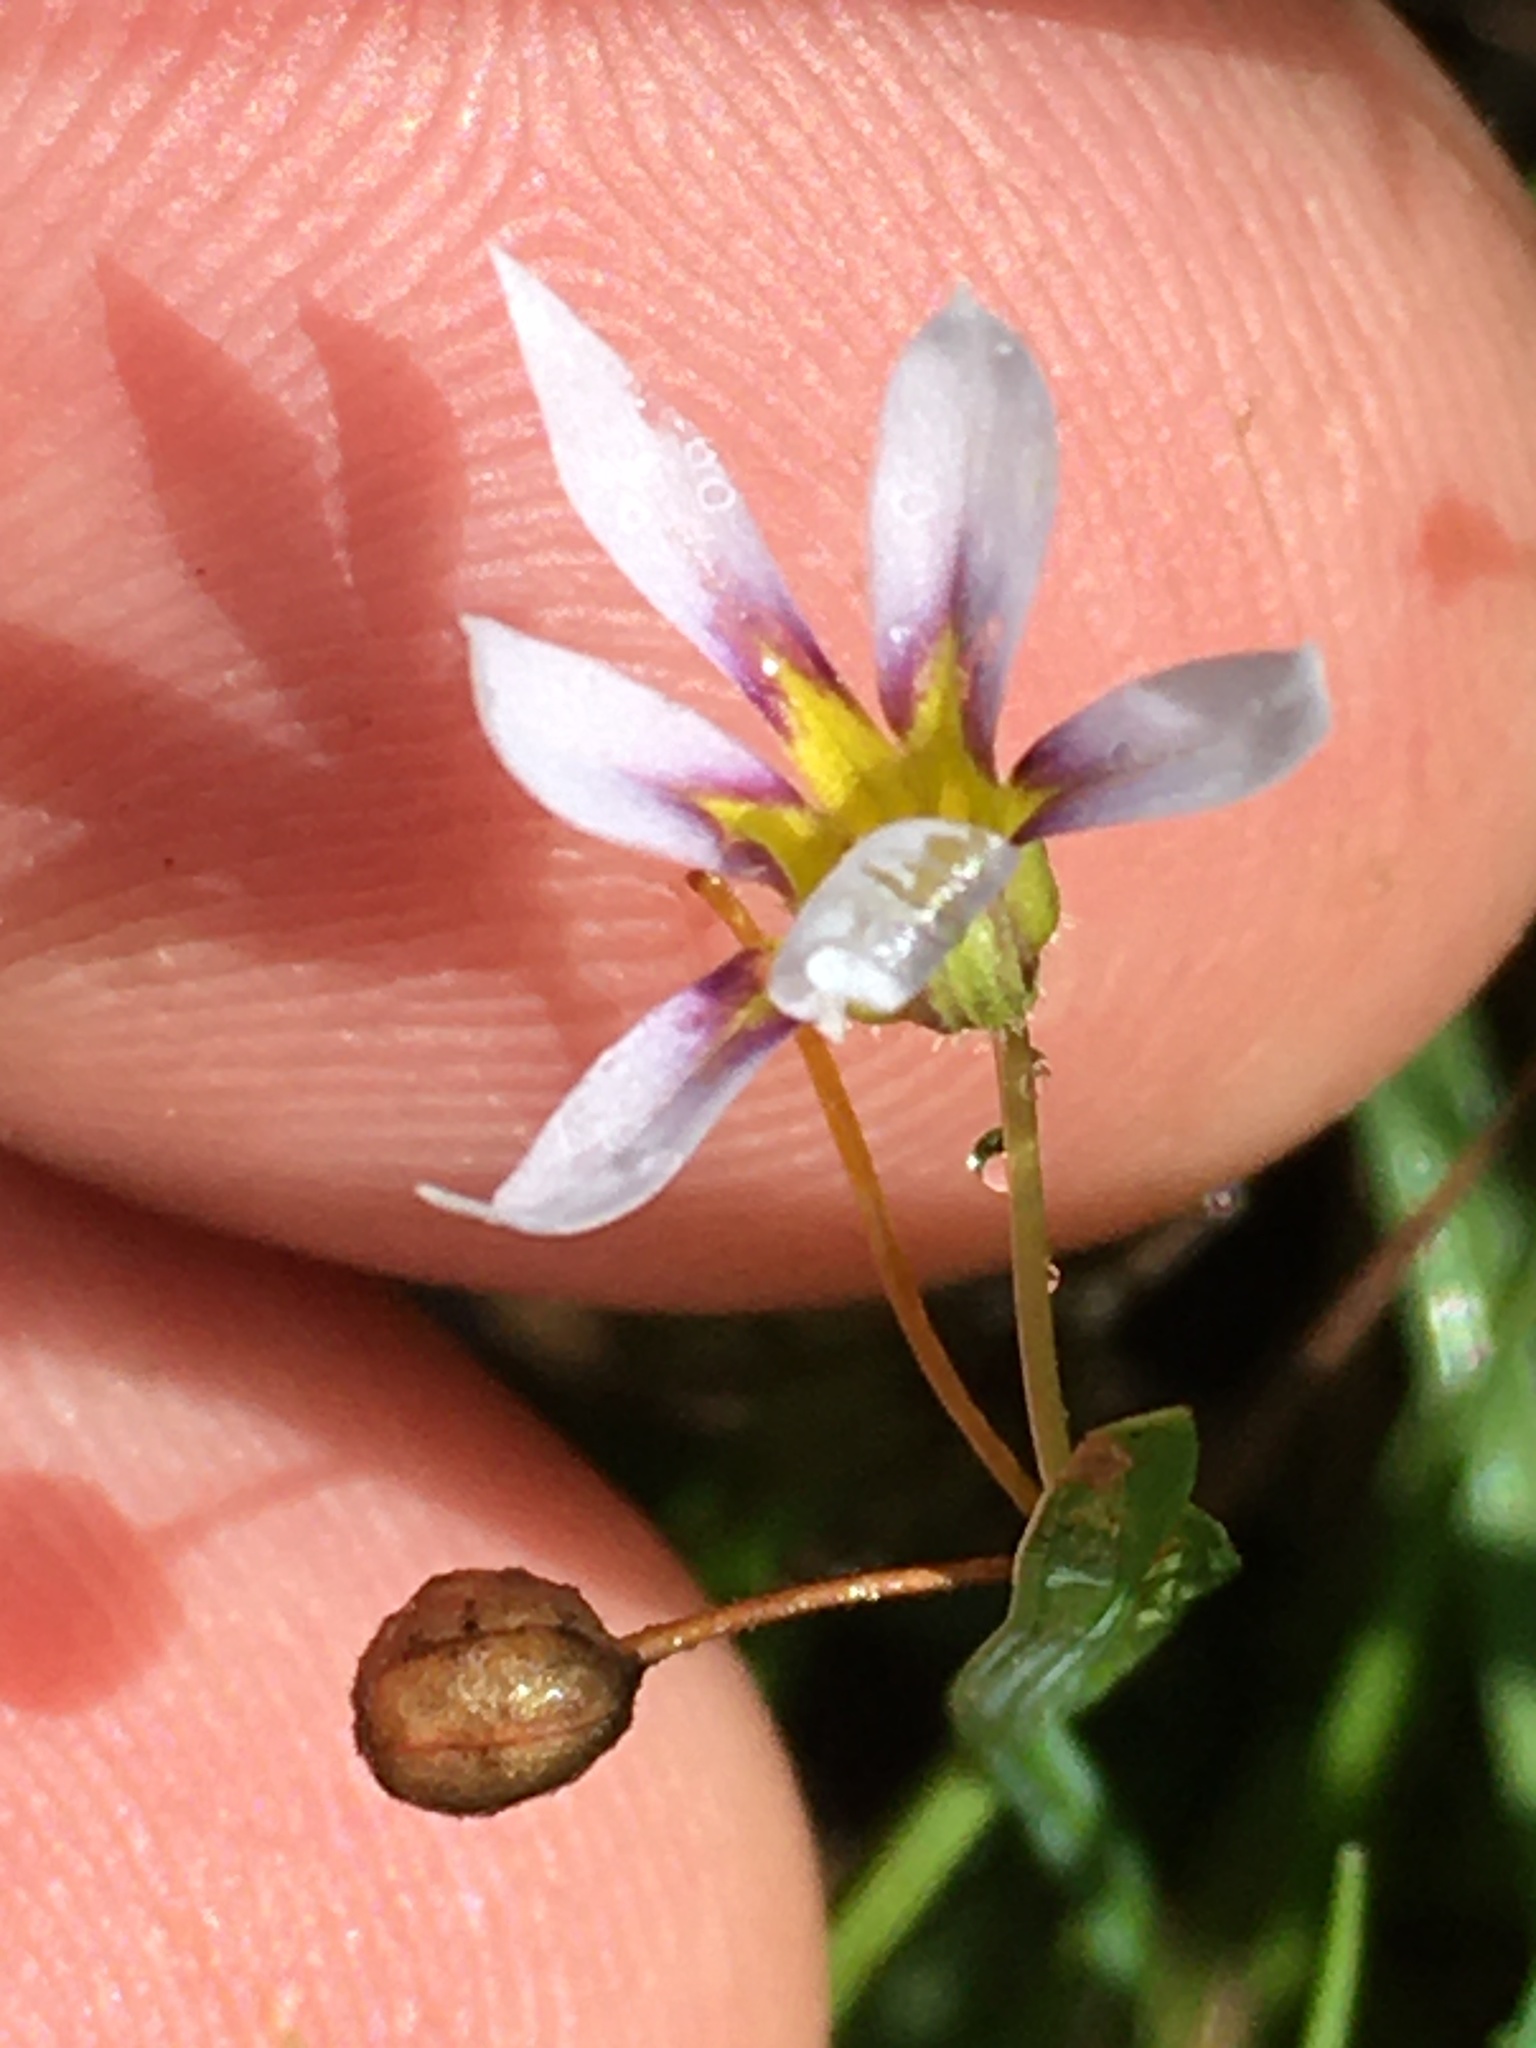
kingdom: Plantae
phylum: Tracheophyta
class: Liliopsida
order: Asparagales
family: Iridaceae
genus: Sisyrinchium
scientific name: Sisyrinchium micranthum
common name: Bermuda pigroot
